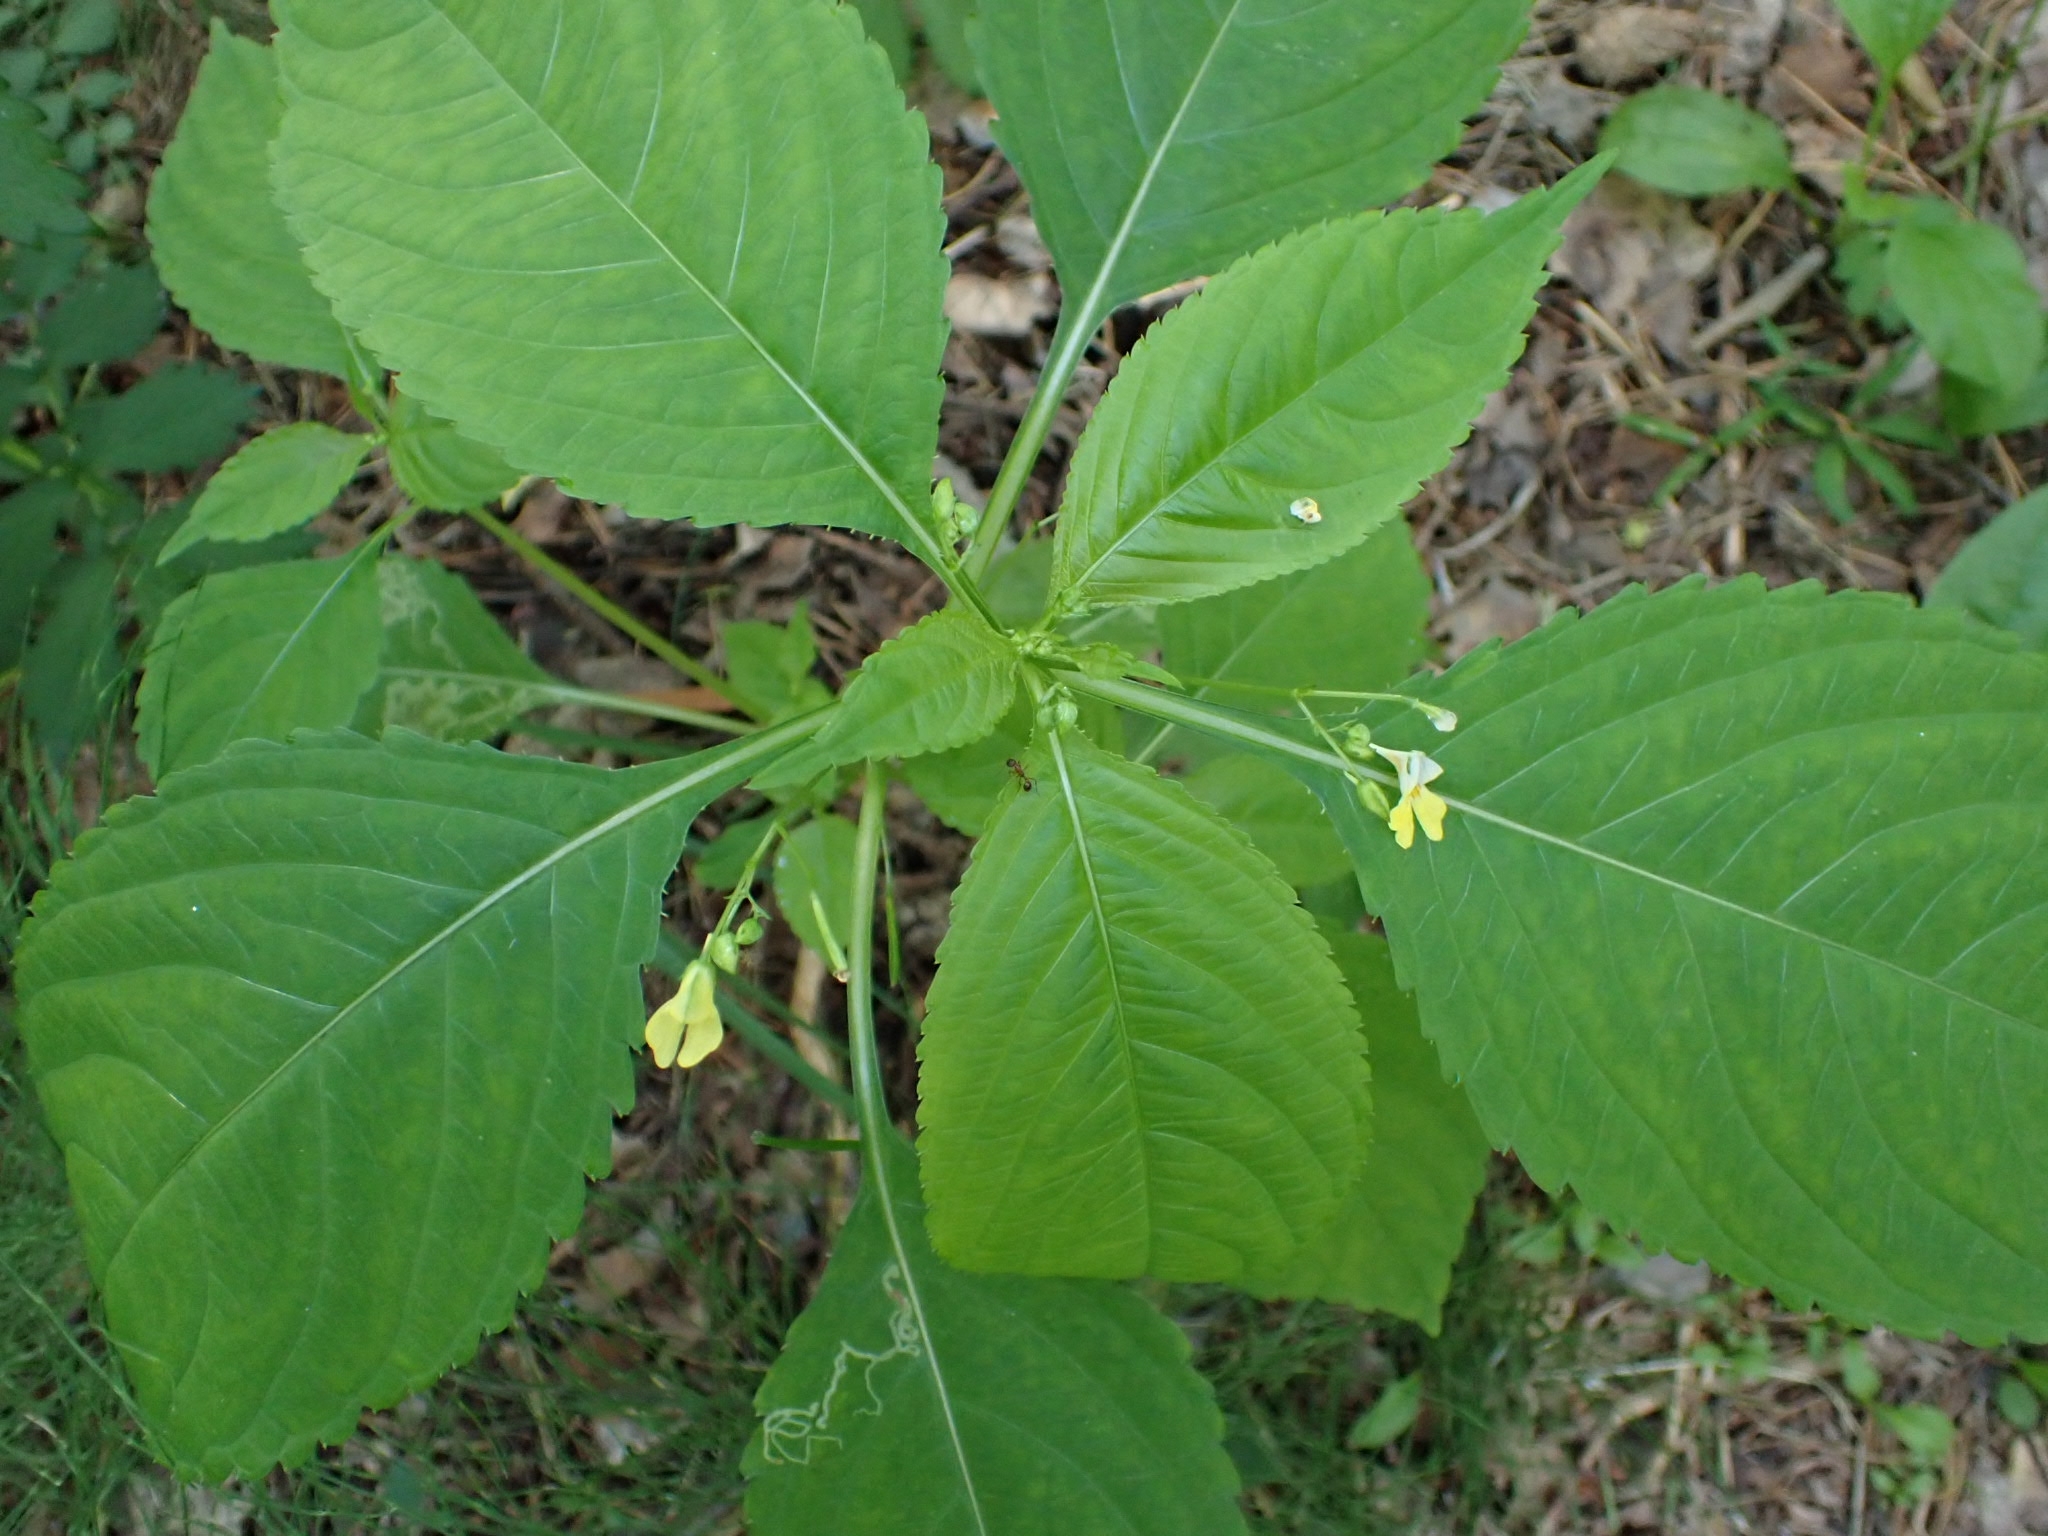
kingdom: Plantae
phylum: Tracheophyta
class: Magnoliopsida
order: Ericales
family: Balsaminaceae
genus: Impatiens
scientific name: Impatiens parviflora
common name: Small balsam
